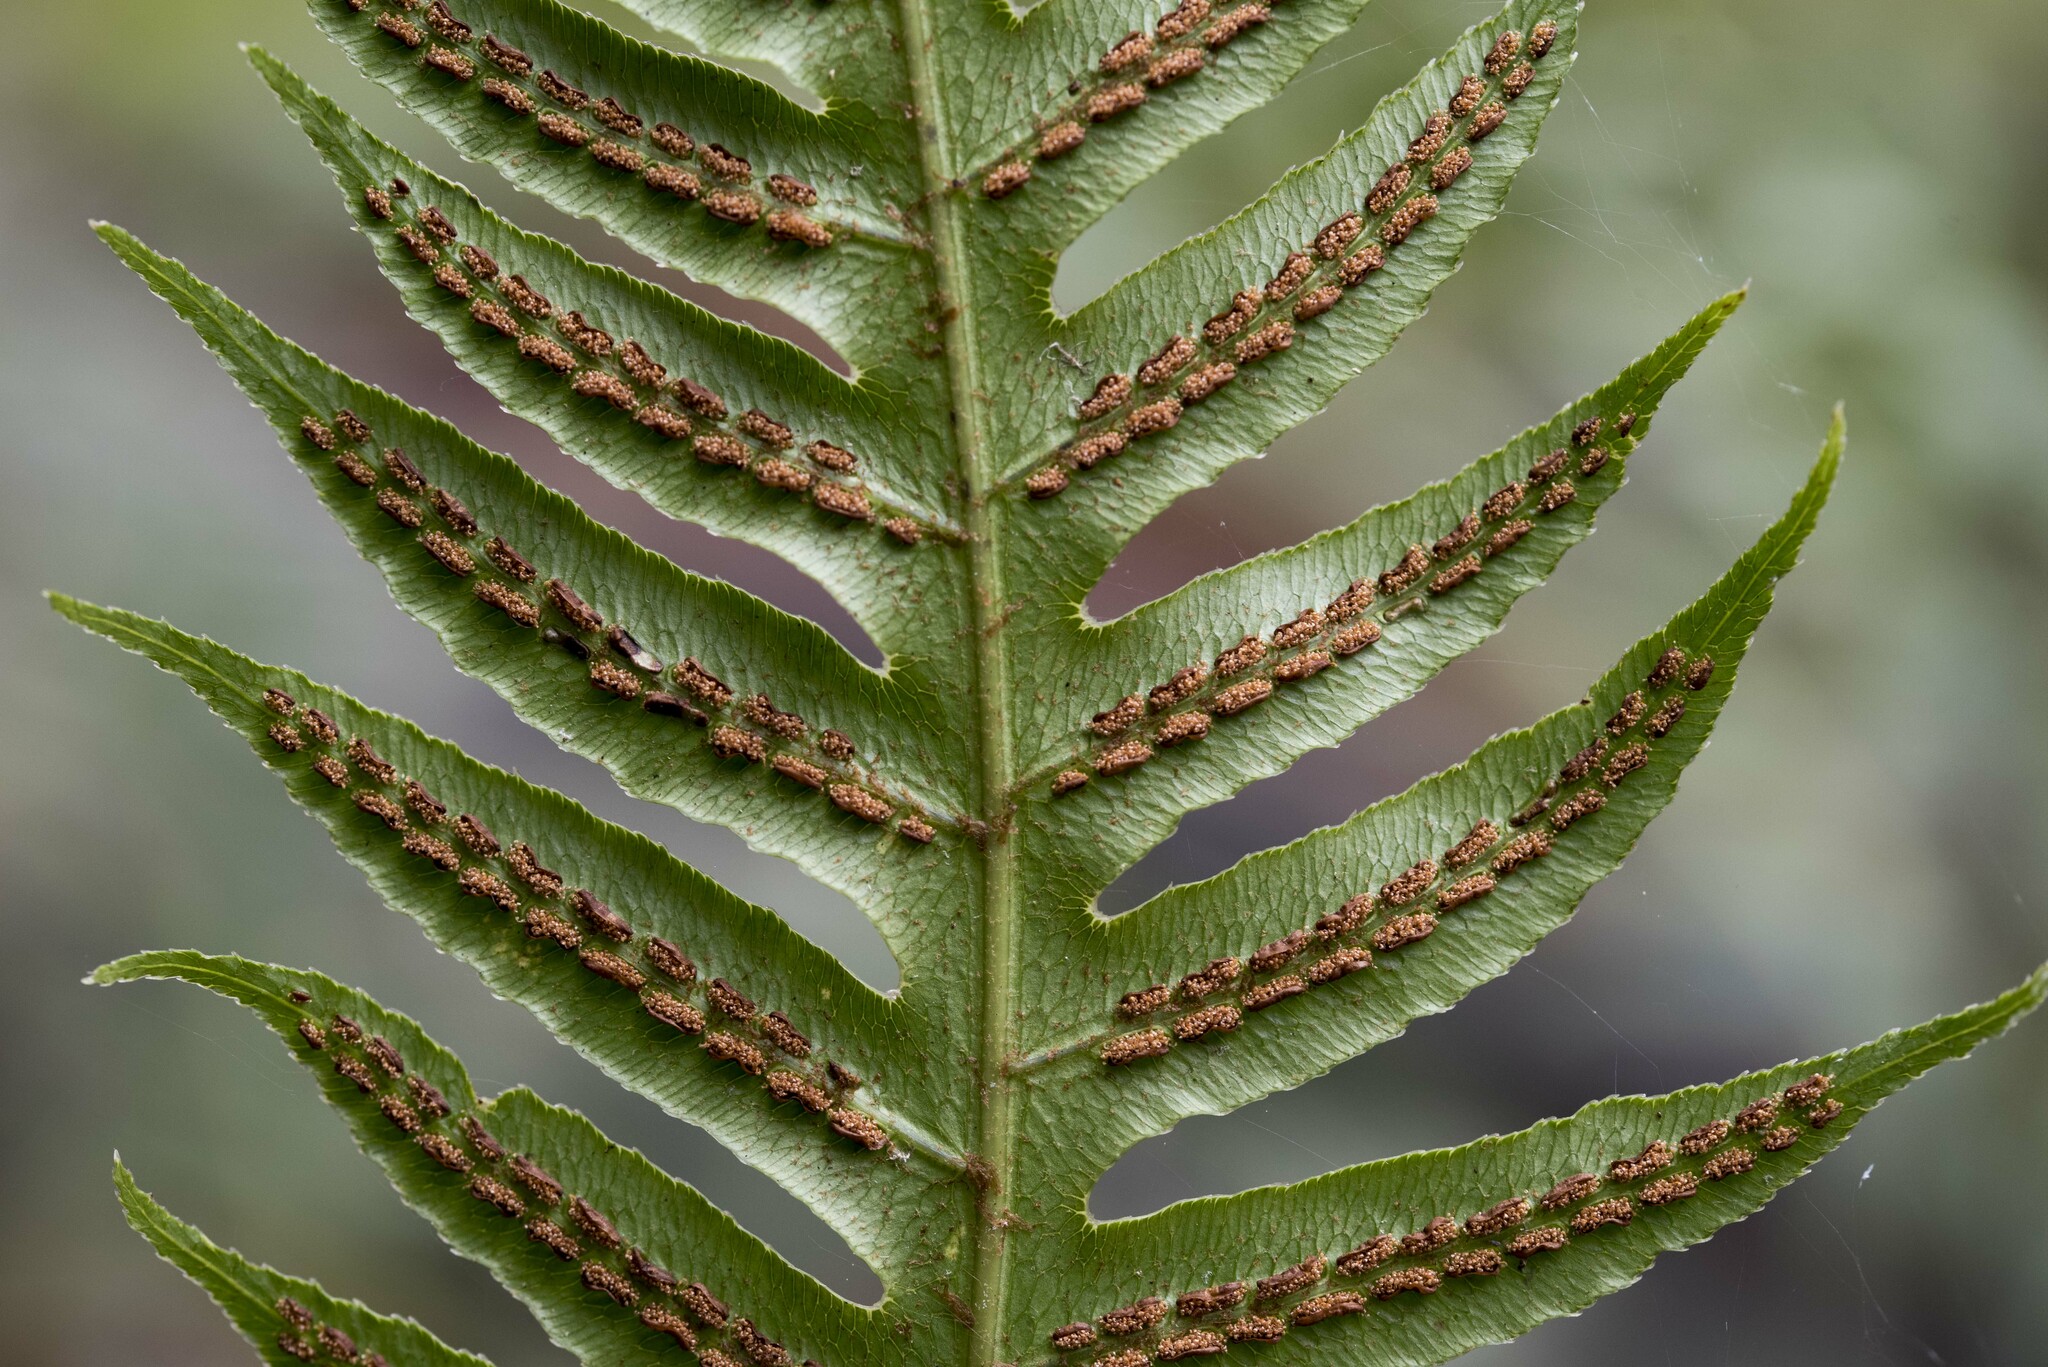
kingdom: Plantae
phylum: Tracheophyta
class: Polypodiopsida
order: Polypodiales
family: Blechnaceae
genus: Woodwardia
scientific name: Woodwardia prolifera
